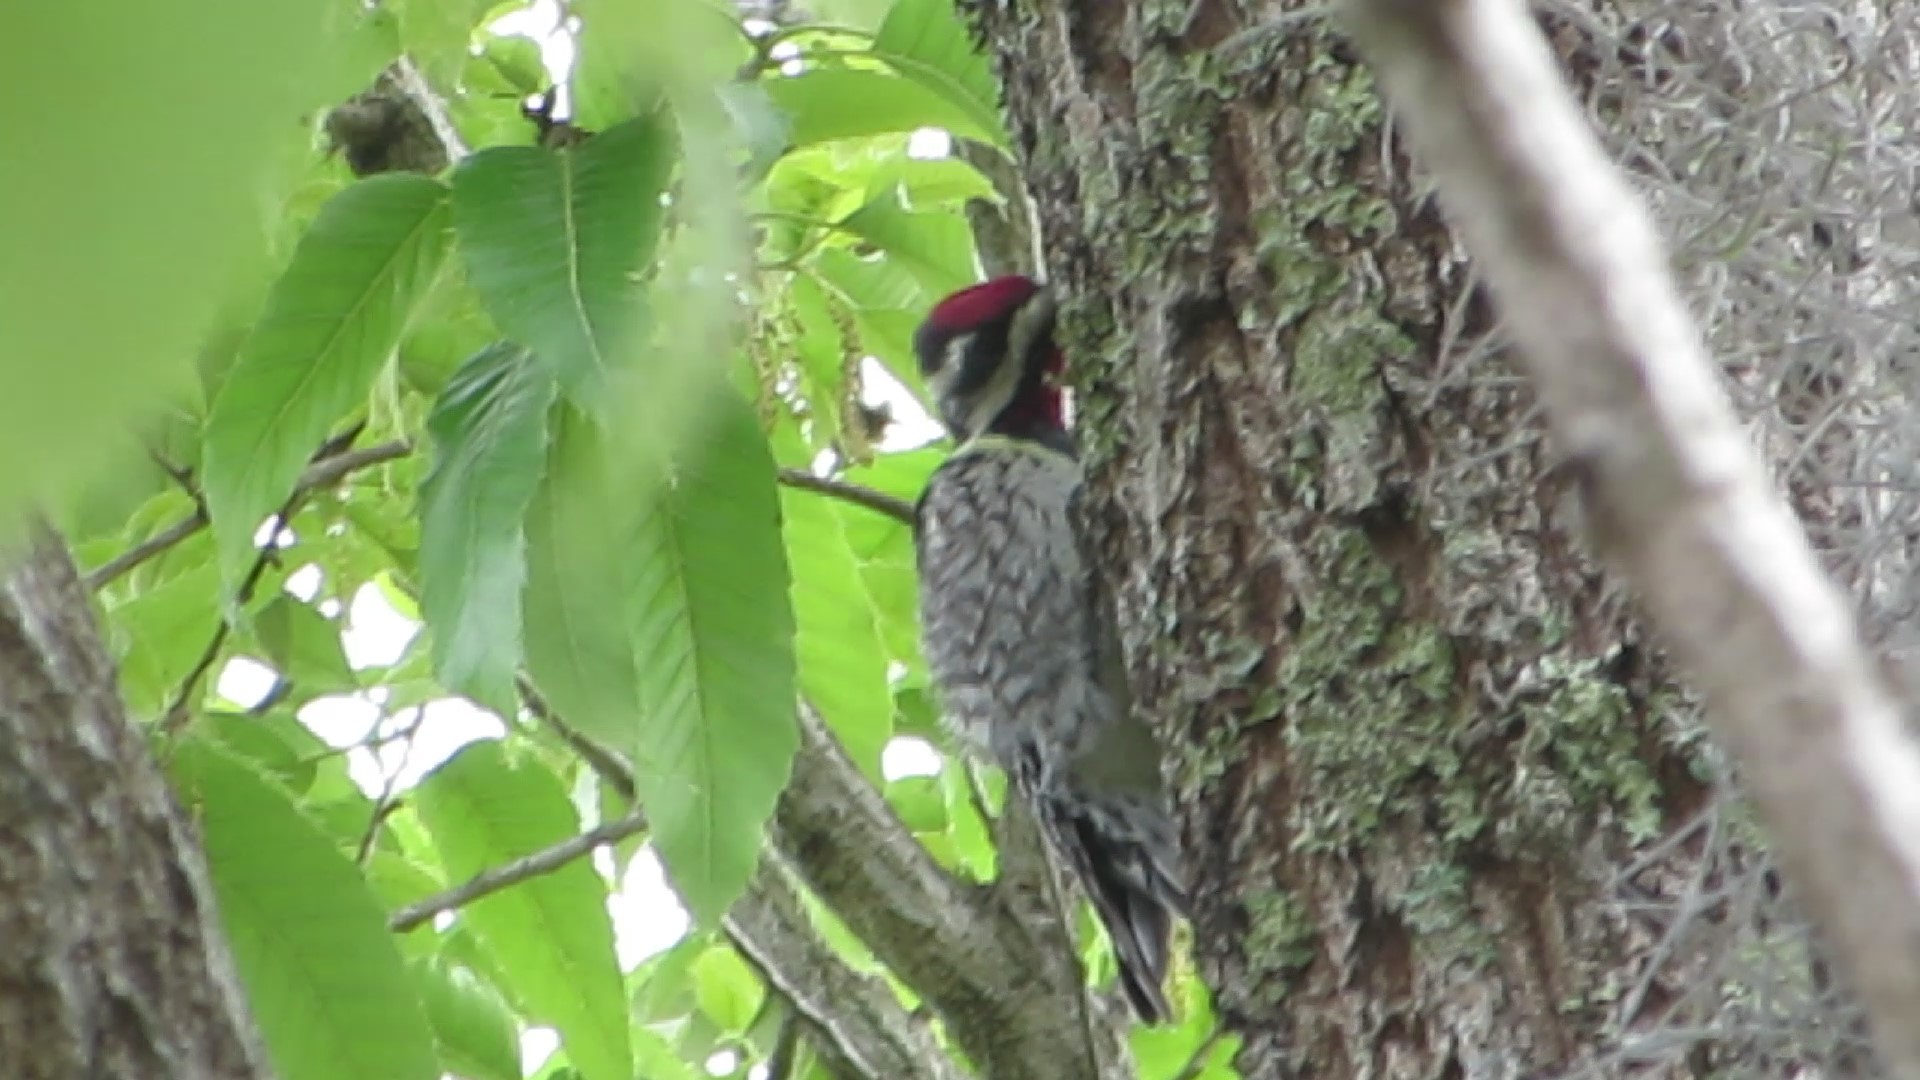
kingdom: Animalia
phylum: Chordata
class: Aves
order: Piciformes
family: Picidae
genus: Sphyrapicus
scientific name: Sphyrapicus varius
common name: Yellow-bellied sapsucker
